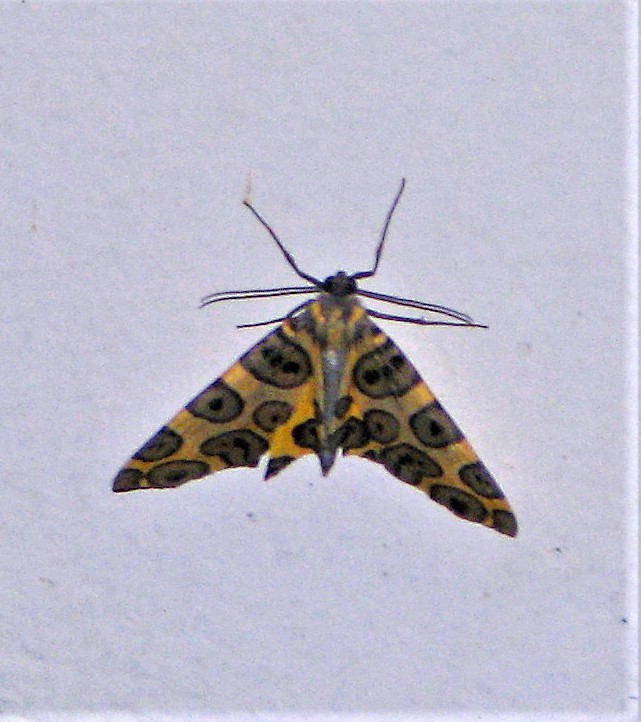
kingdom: Animalia
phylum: Arthropoda
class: Insecta
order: Lepidoptera
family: Geometridae
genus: Pantherodes
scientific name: Pantherodes pardalaria
